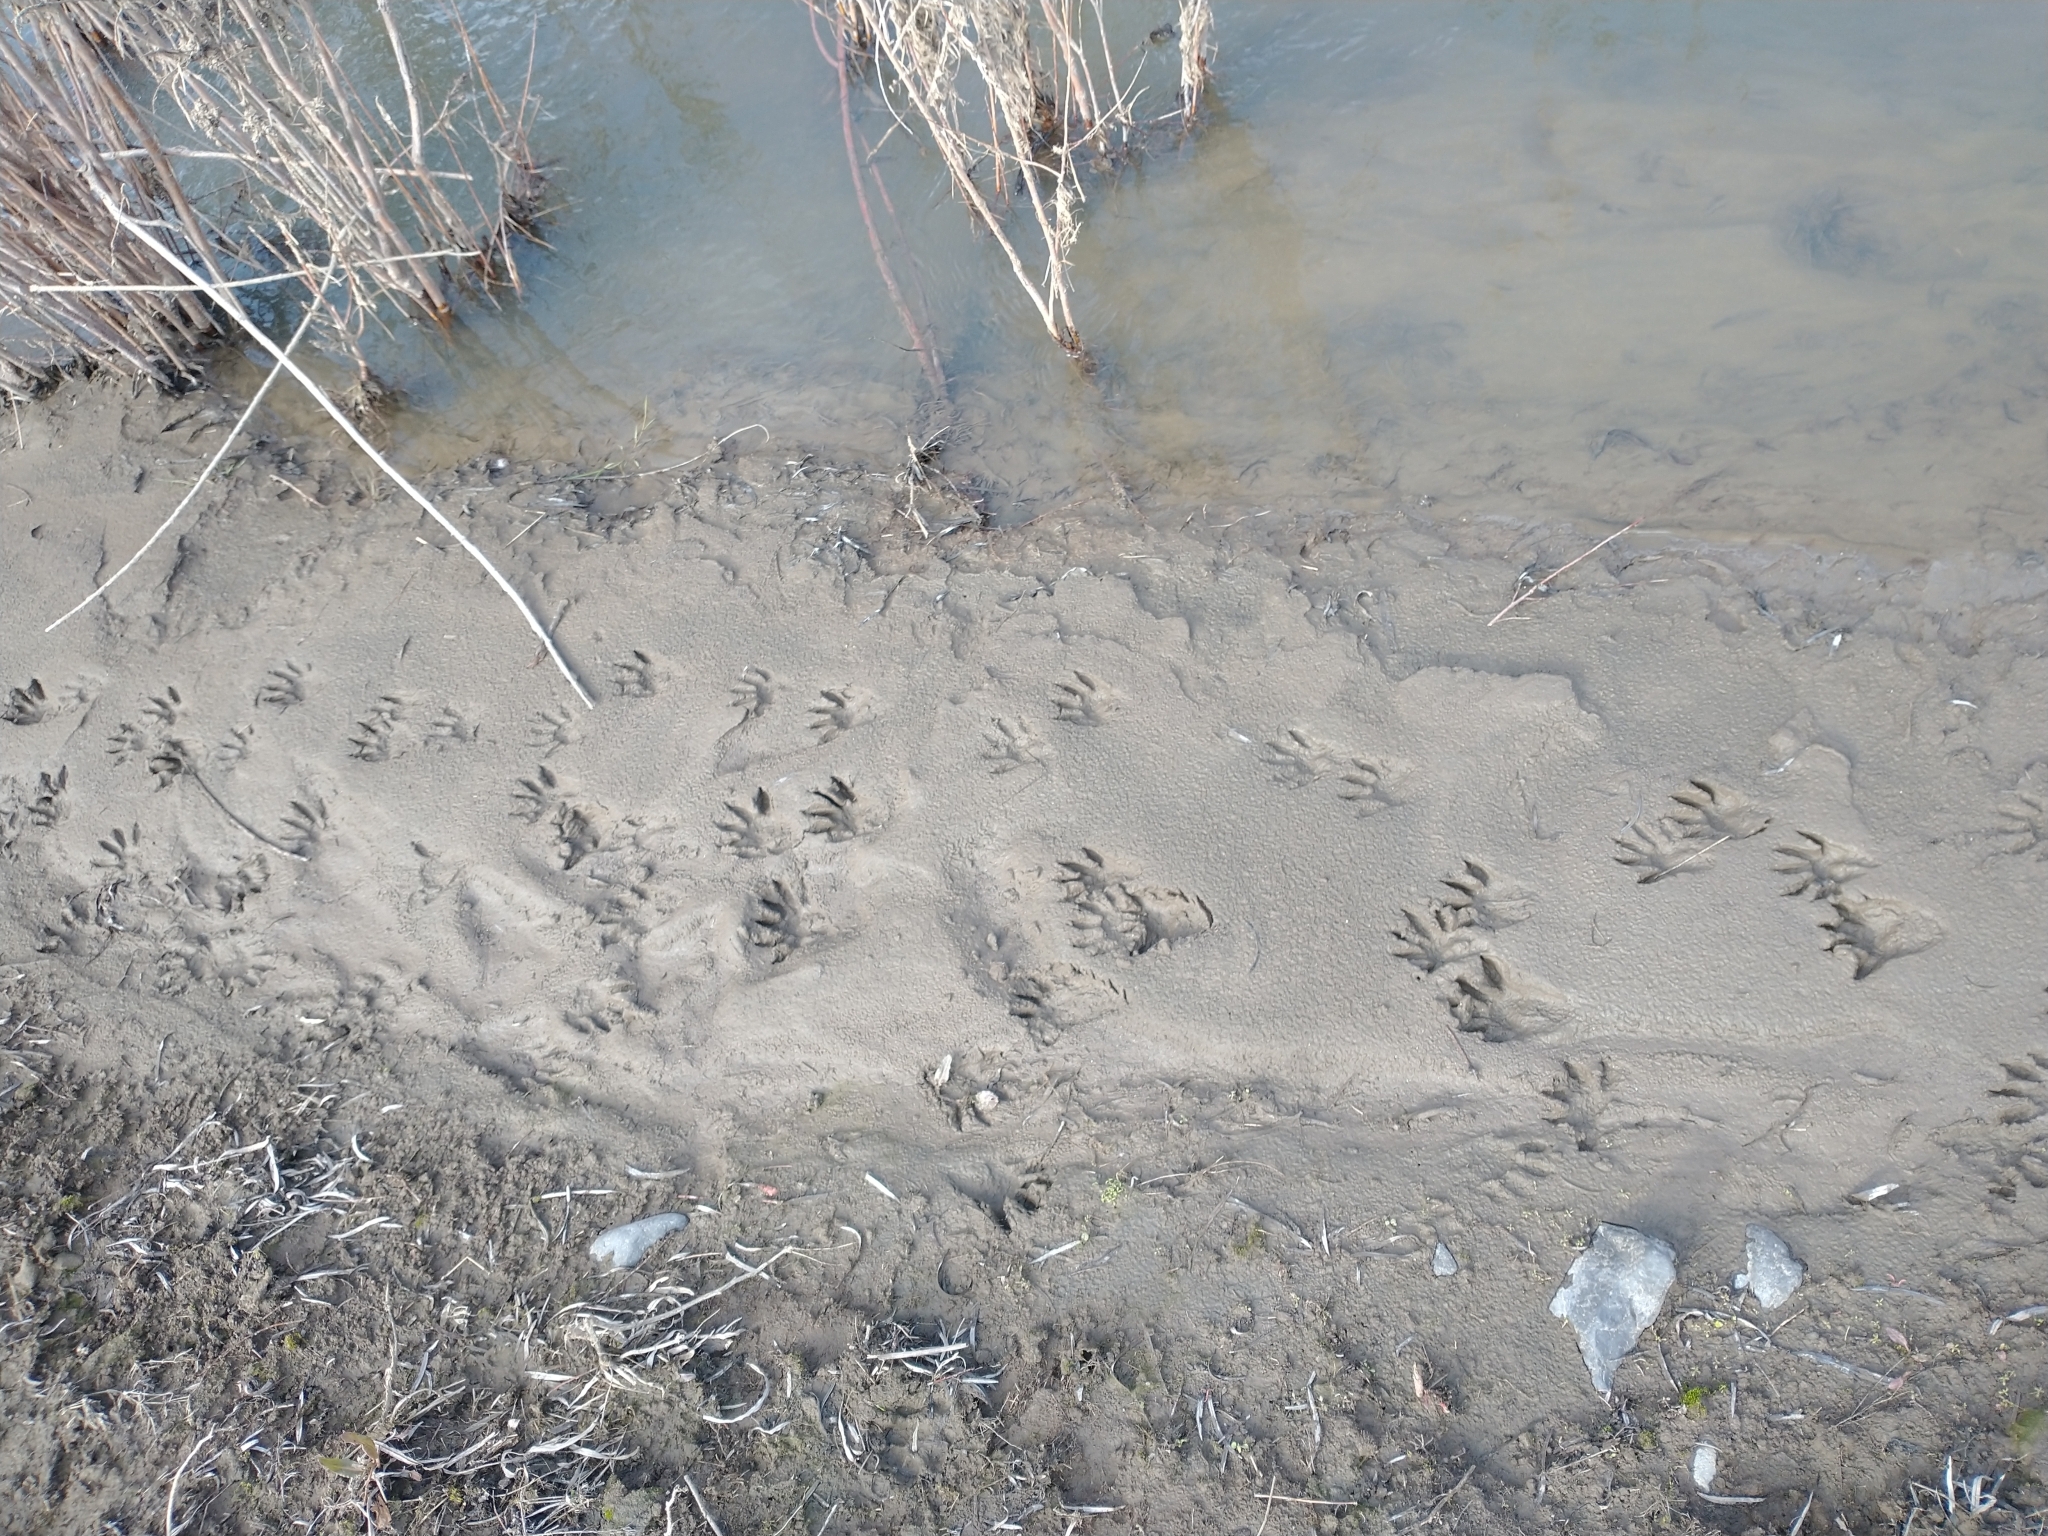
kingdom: Animalia
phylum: Chordata
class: Mammalia
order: Carnivora
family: Procyonidae
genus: Procyon
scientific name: Procyon lotor
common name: Raccoon
